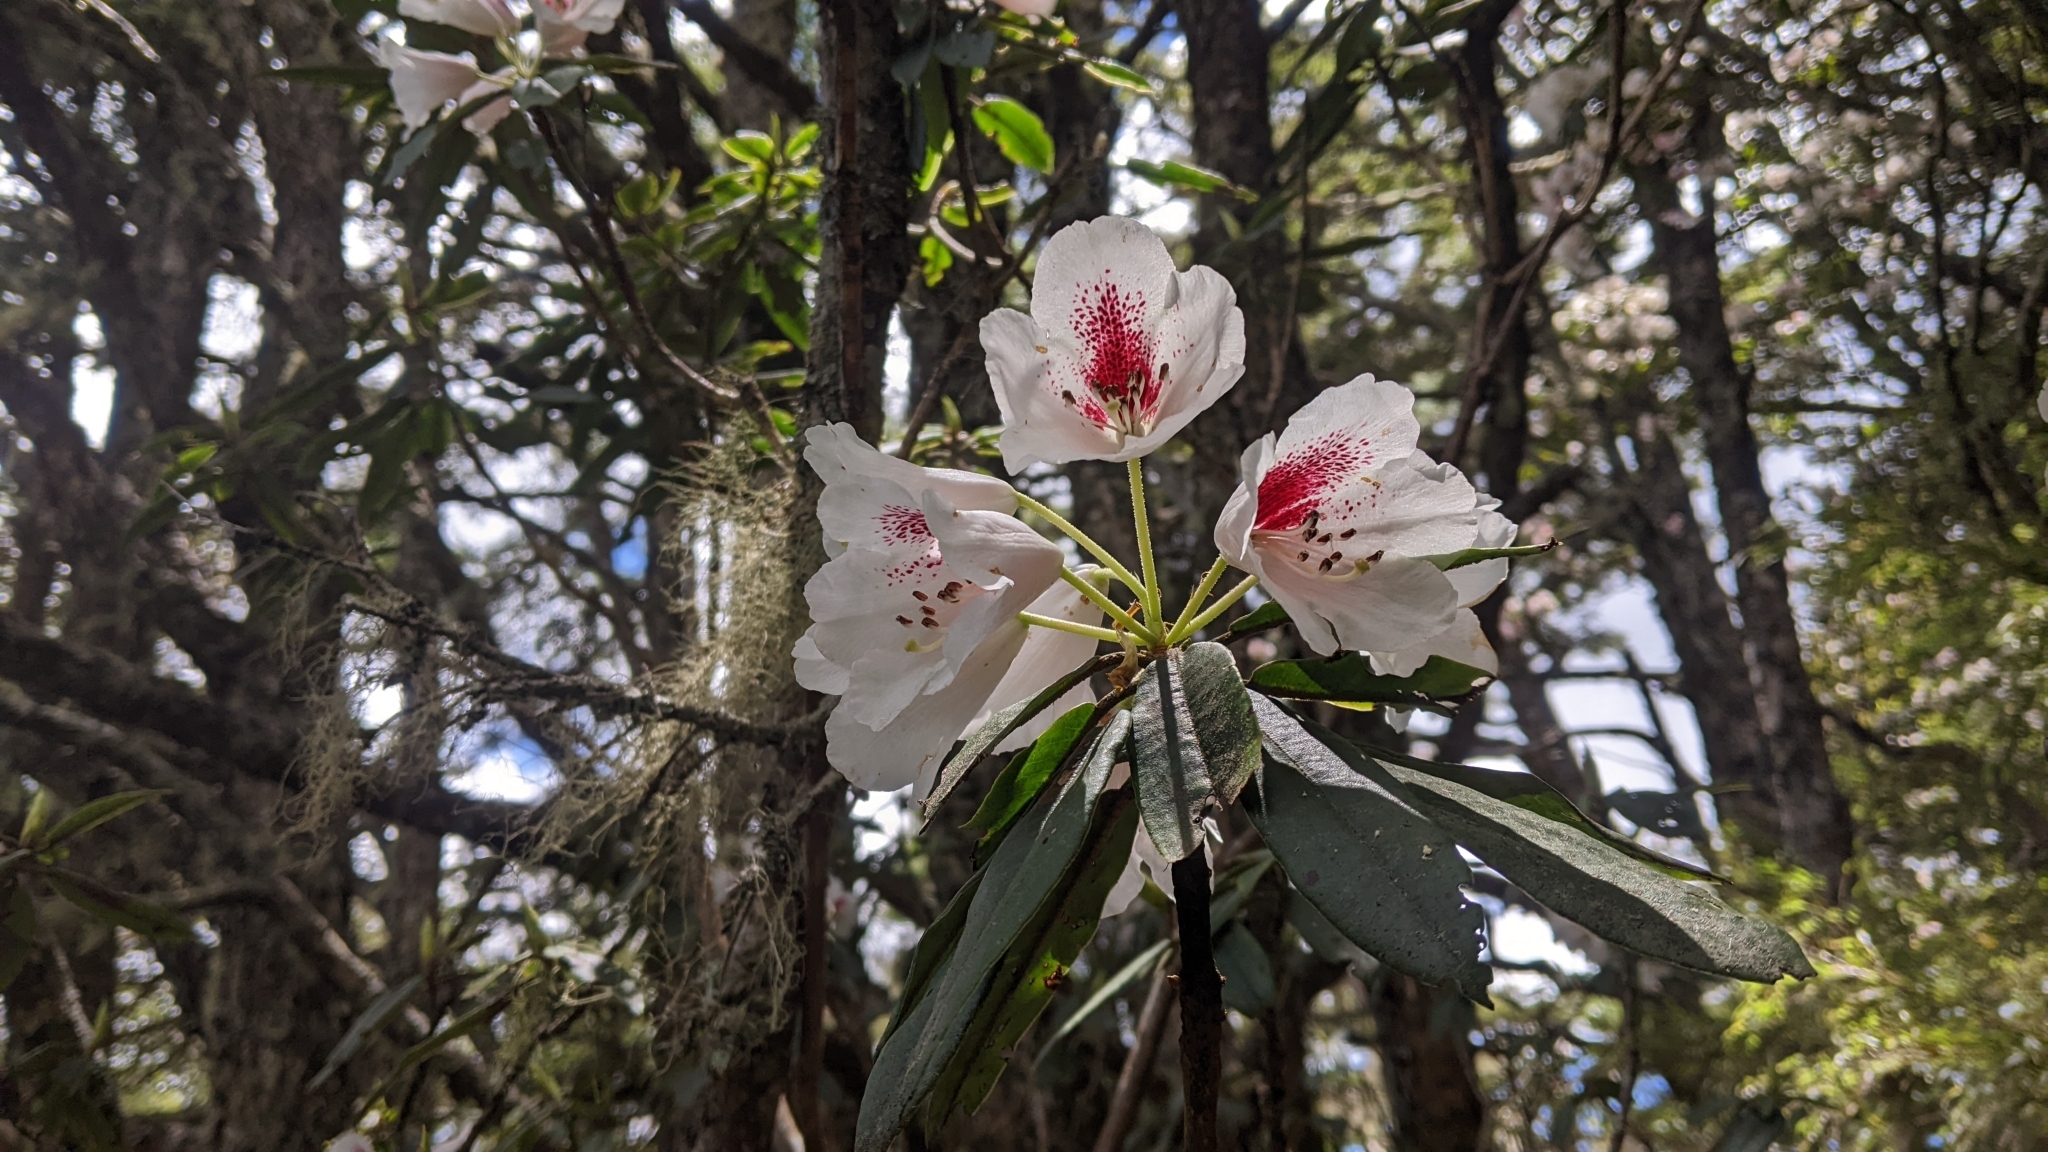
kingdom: Plantae
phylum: Tracheophyta
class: Magnoliopsida
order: Ericales
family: Ericaceae
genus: Rhododendron
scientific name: Rhododendron pseudochrysanthum
